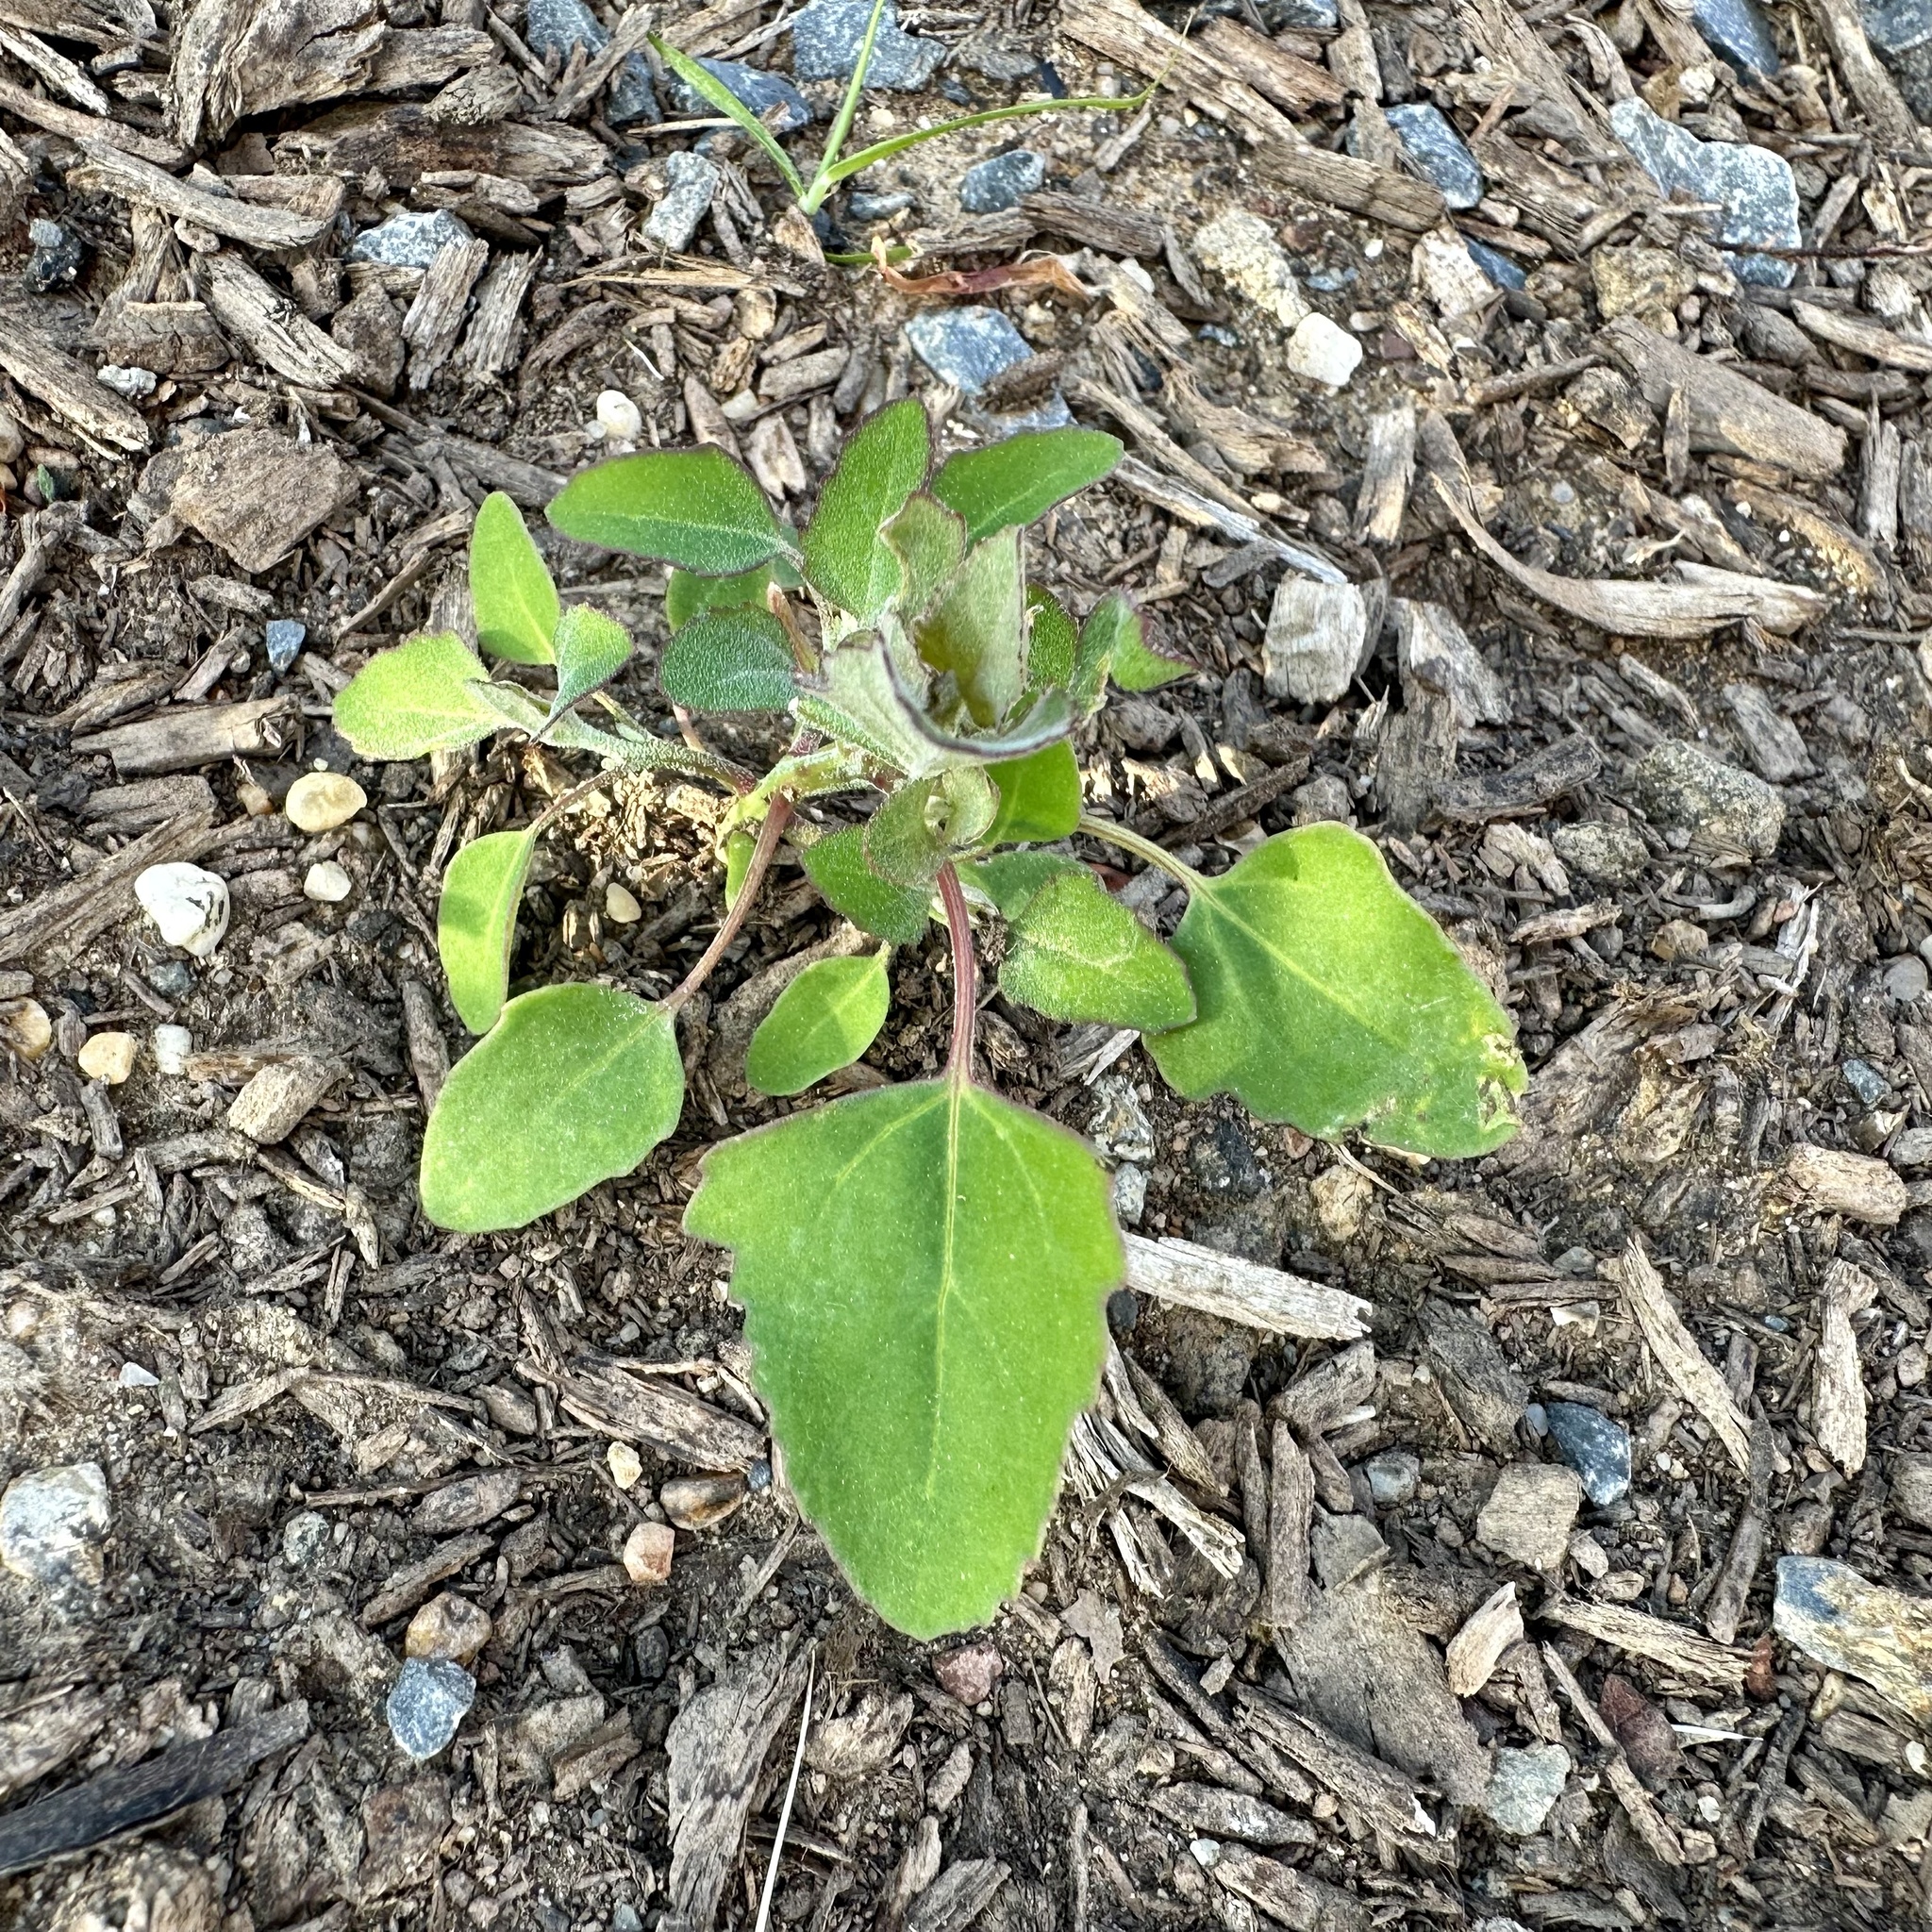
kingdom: Plantae
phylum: Tracheophyta
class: Magnoliopsida
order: Caryophyllales
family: Amaranthaceae
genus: Chenopodium
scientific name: Chenopodium album
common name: Fat-hen
